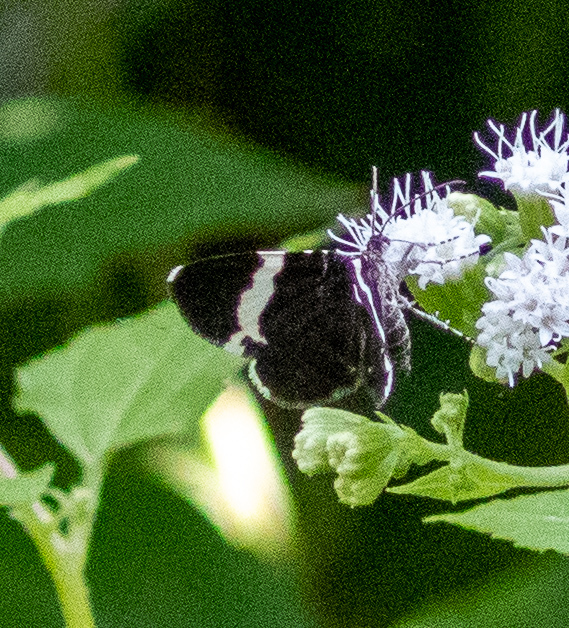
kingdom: Animalia
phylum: Arthropoda
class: Insecta
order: Lepidoptera
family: Geometridae
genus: Trichodezia
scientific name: Trichodezia albovittata
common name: White striped black
